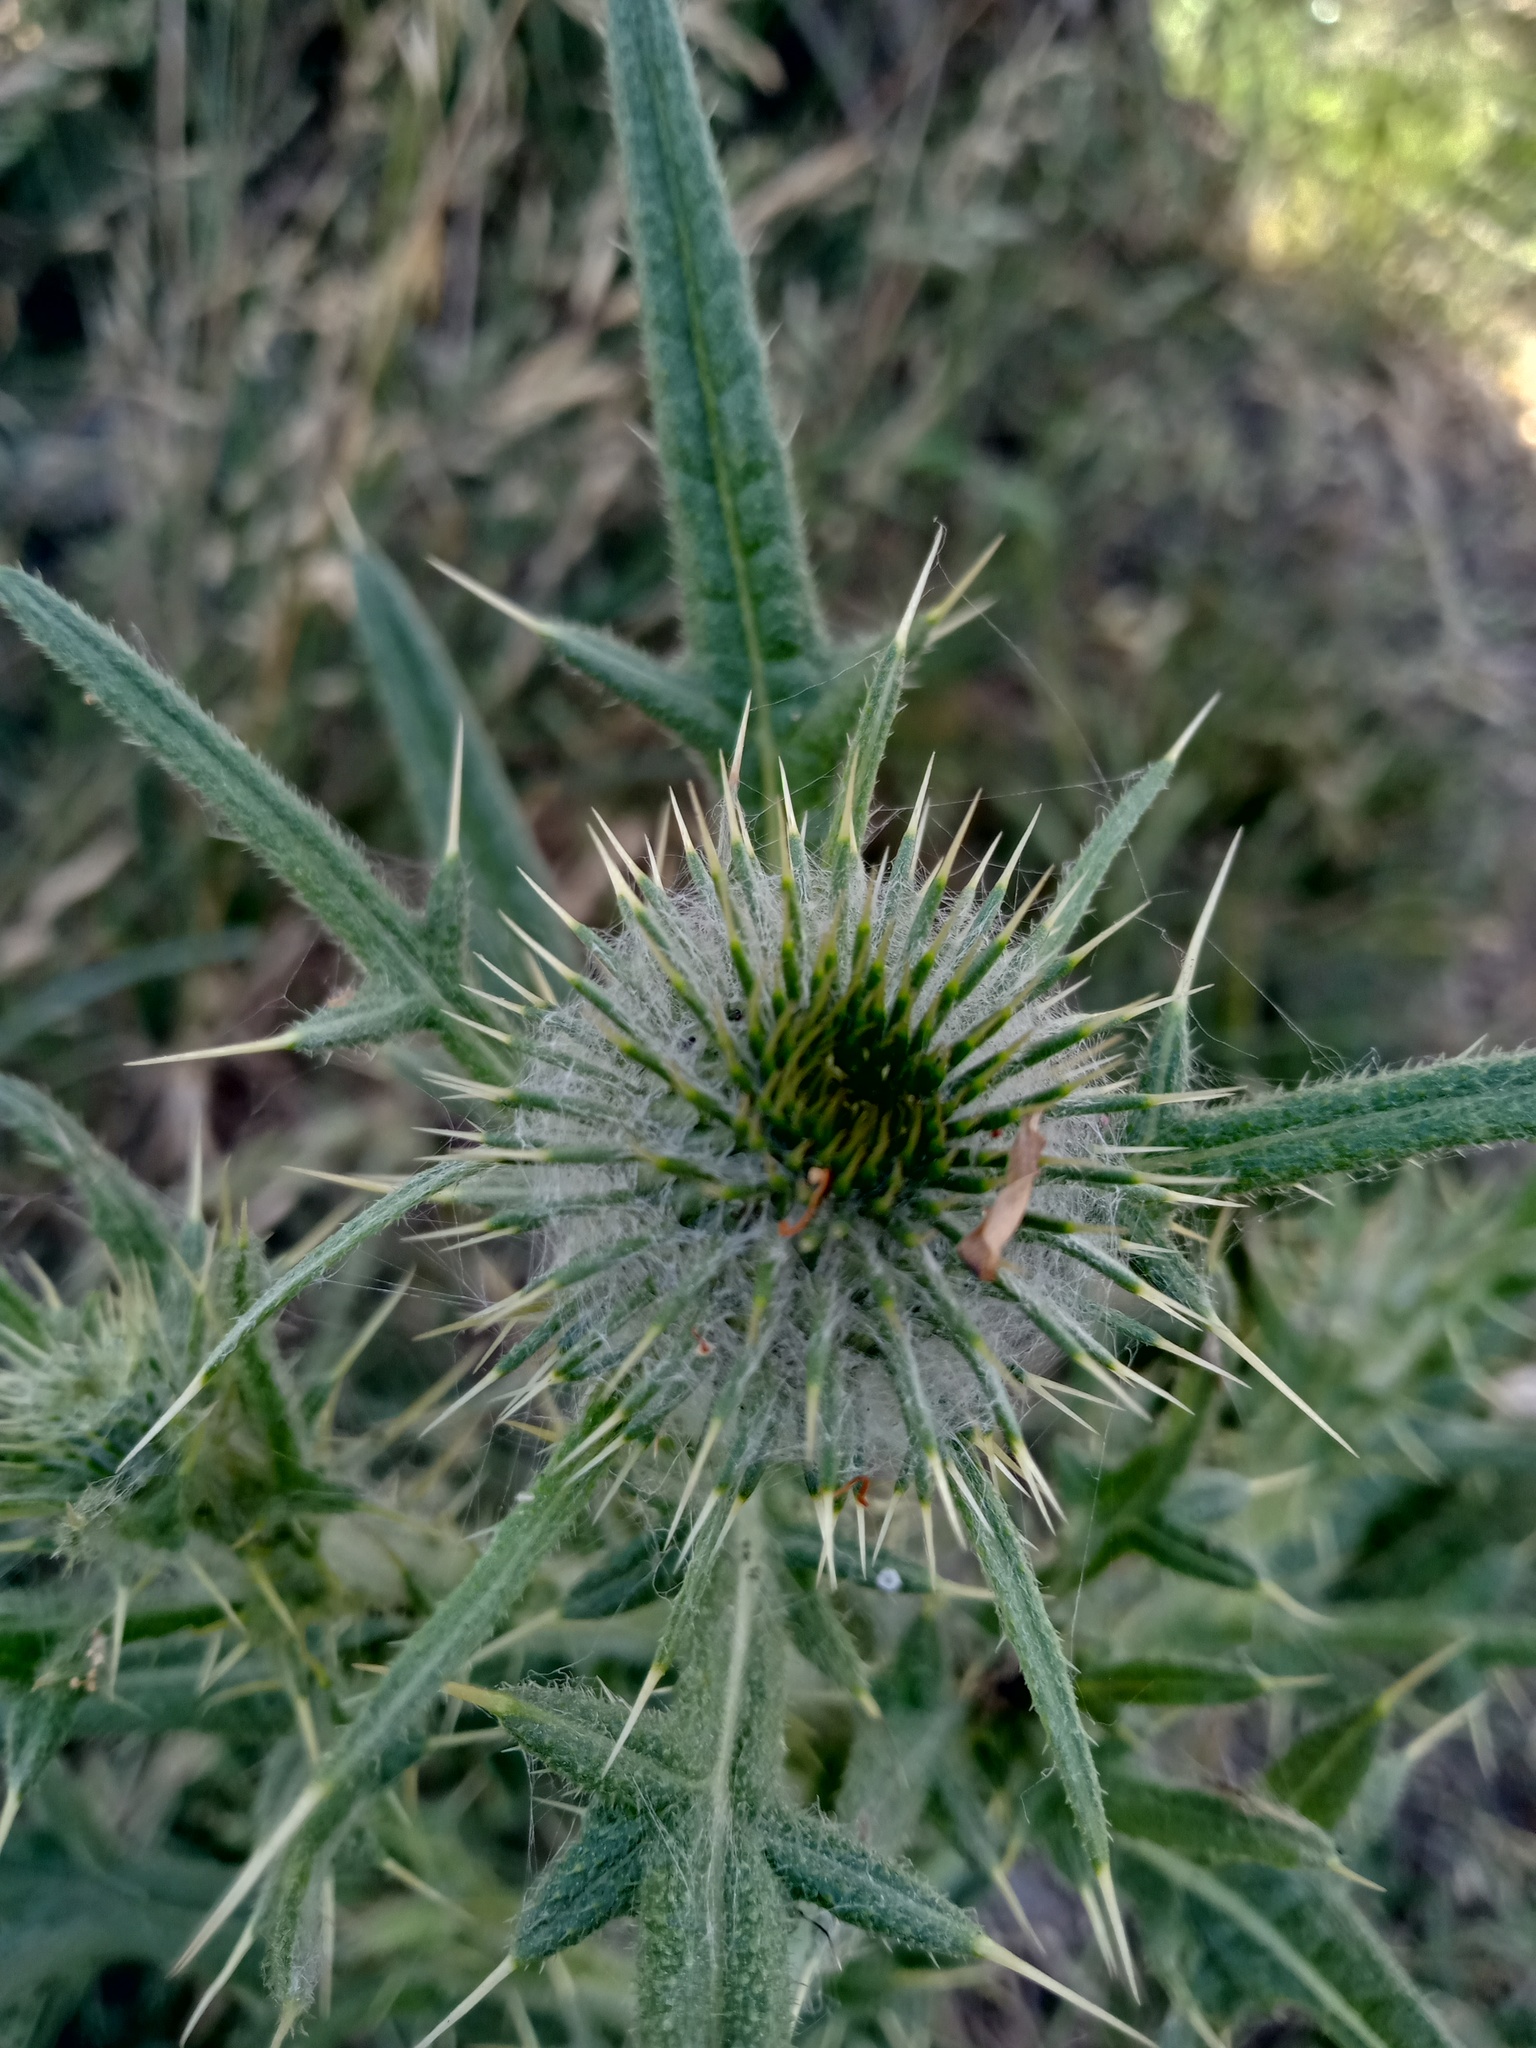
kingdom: Plantae
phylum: Tracheophyta
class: Magnoliopsida
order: Asterales
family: Asteraceae
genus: Cirsium
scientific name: Cirsium vulgare
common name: Bull thistle
